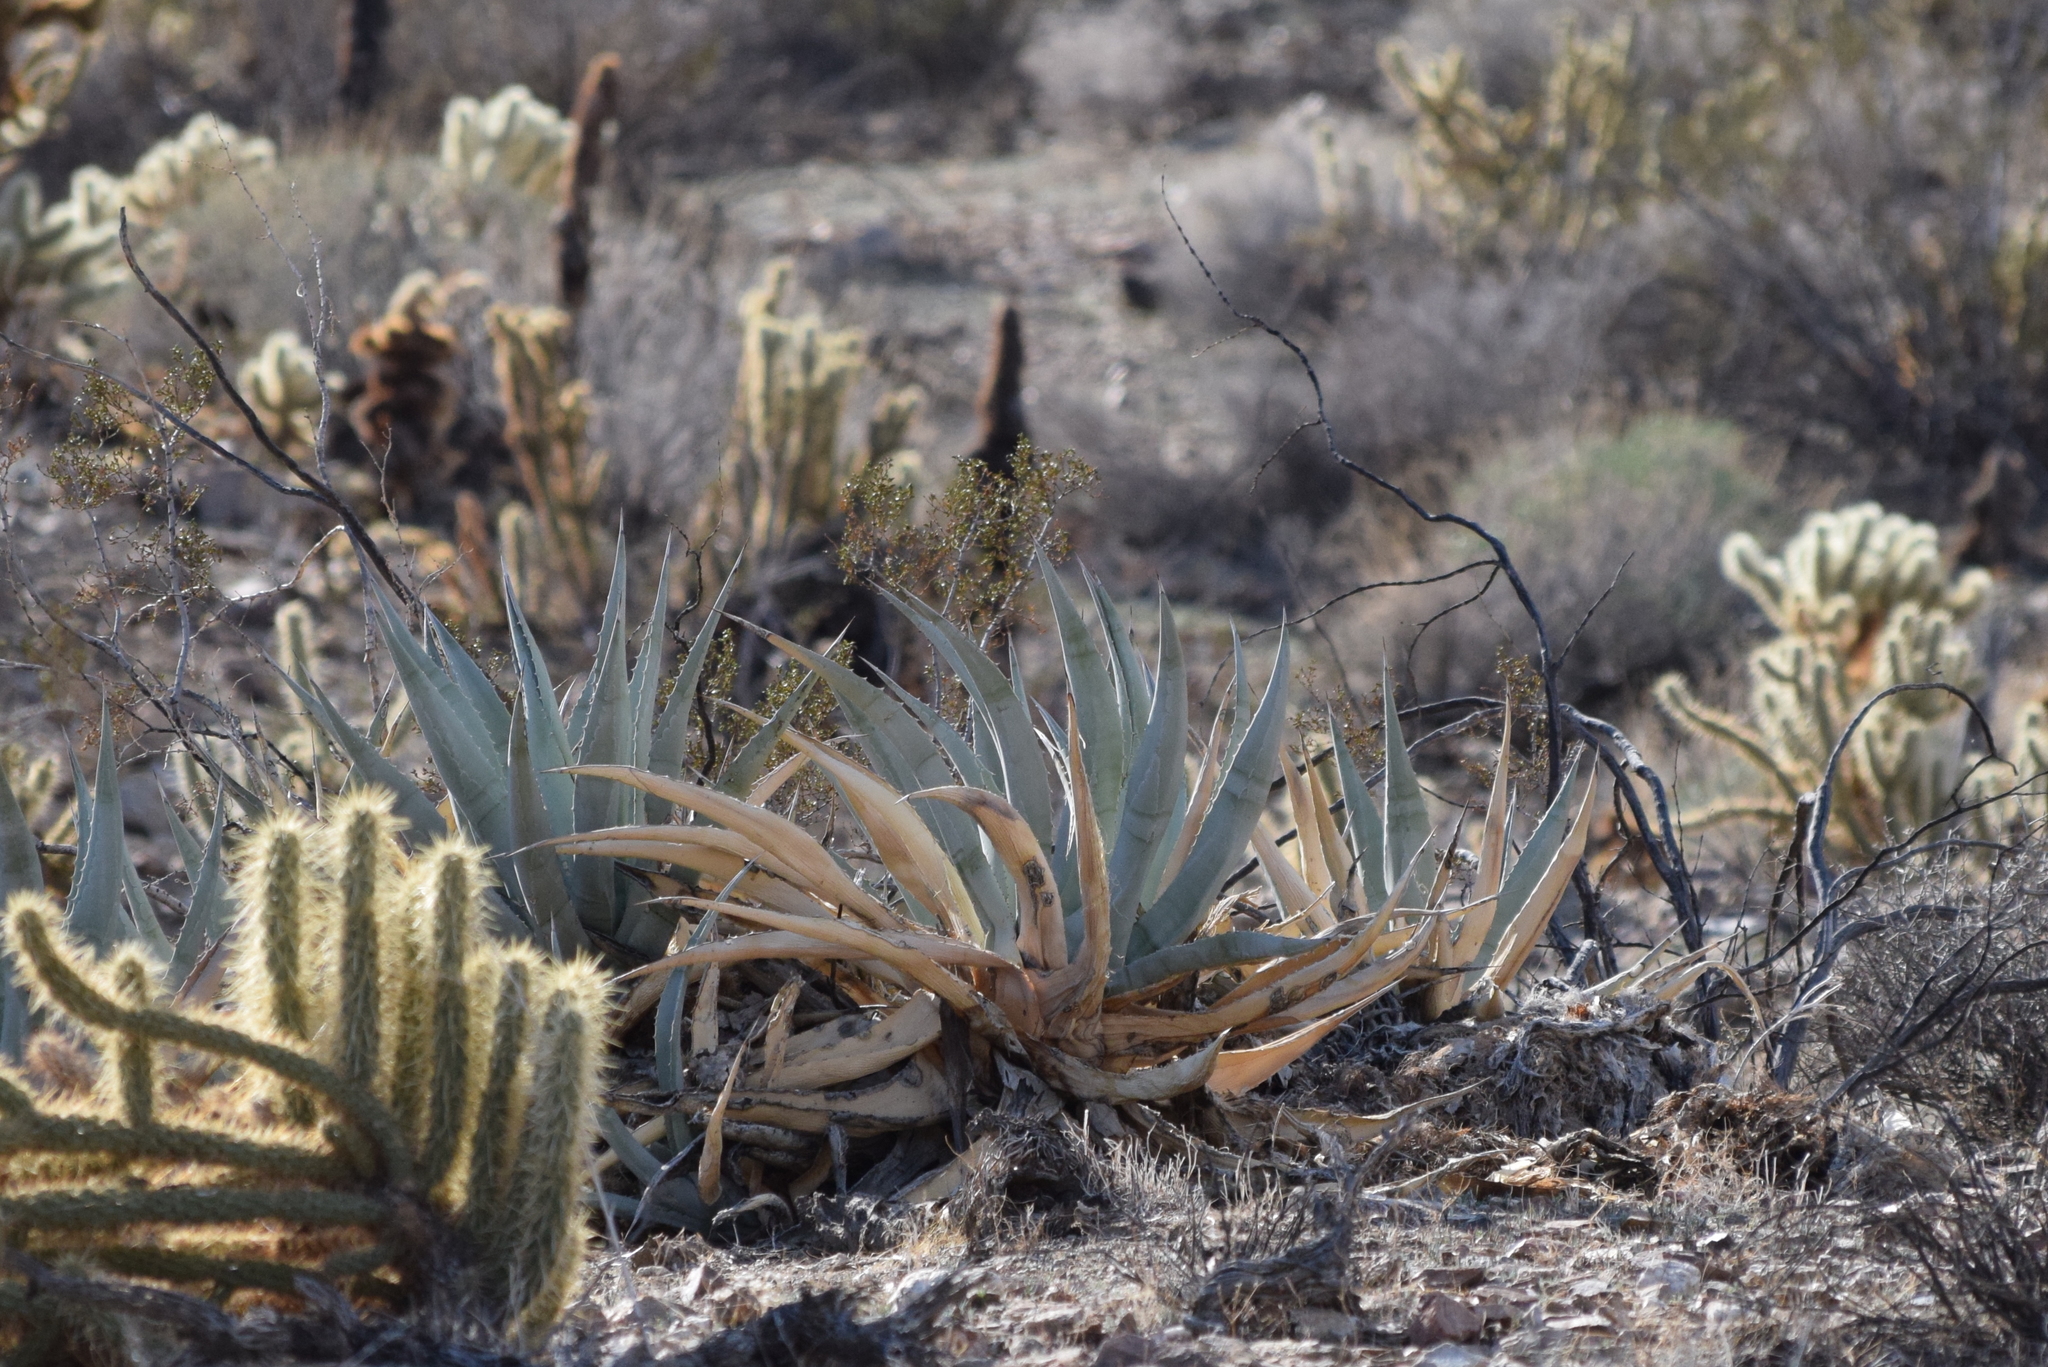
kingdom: Plantae
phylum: Tracheophyta
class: Liliopsida
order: Asparagales
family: Asparagaceae
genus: Agave
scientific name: Agave deserti
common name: Desert agave
